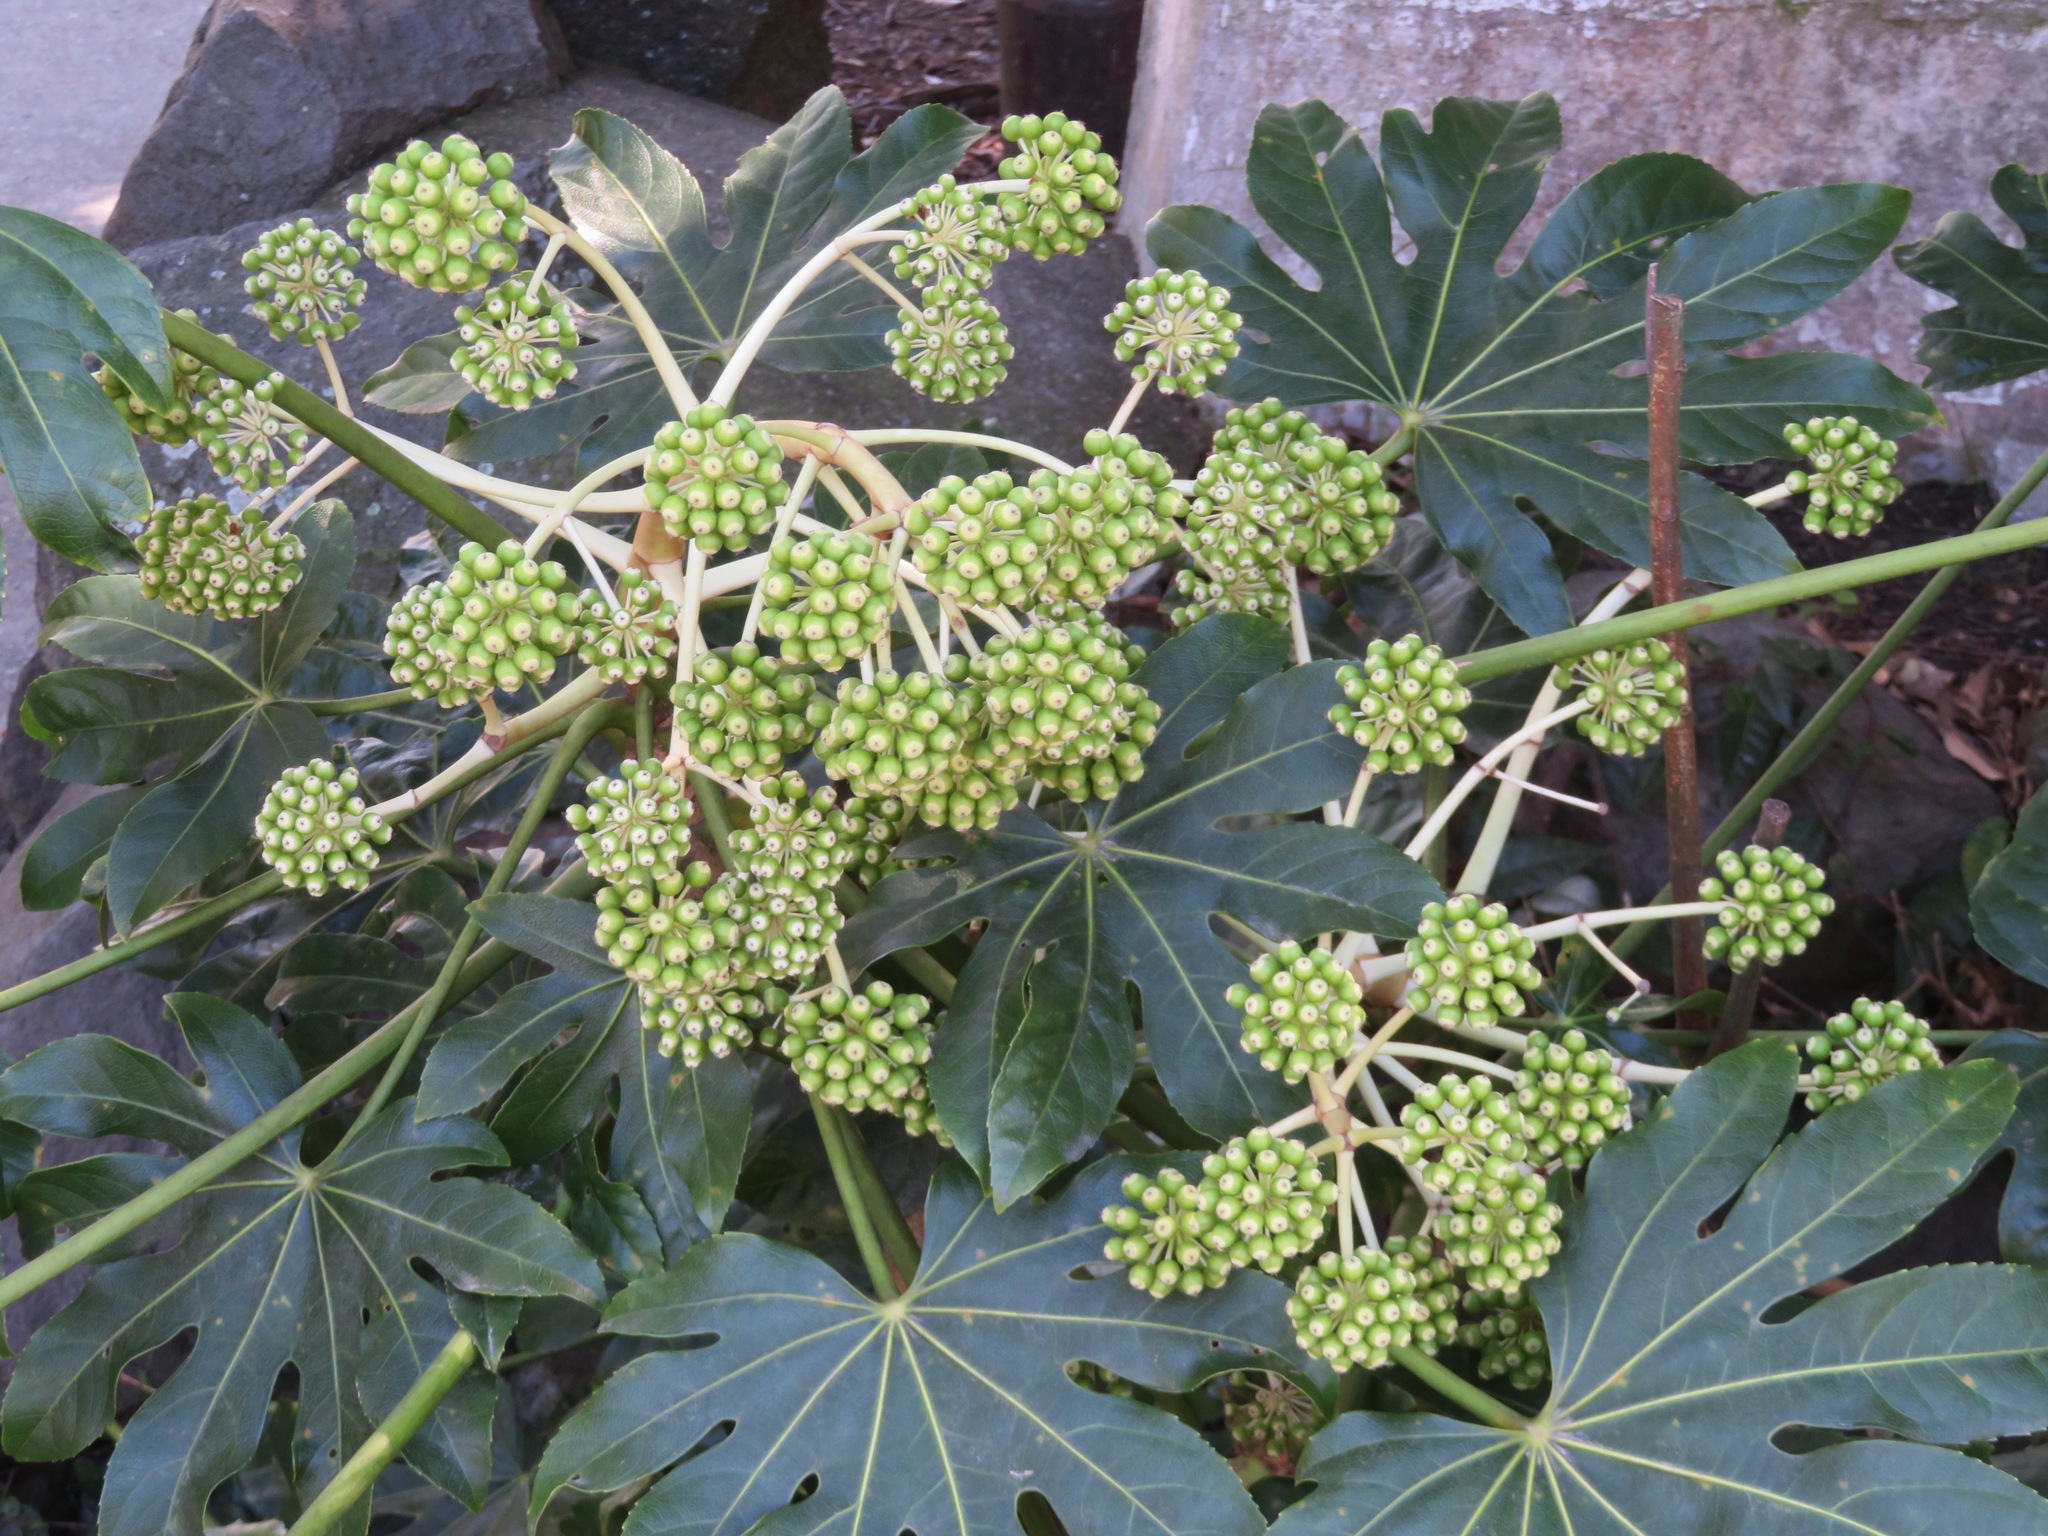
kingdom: Plantae
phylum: Tracheophyta
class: Magnoliopsida
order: Apiales
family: Araliaceae
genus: Fatsia
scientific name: Fatsia japonica
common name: Fatsia
